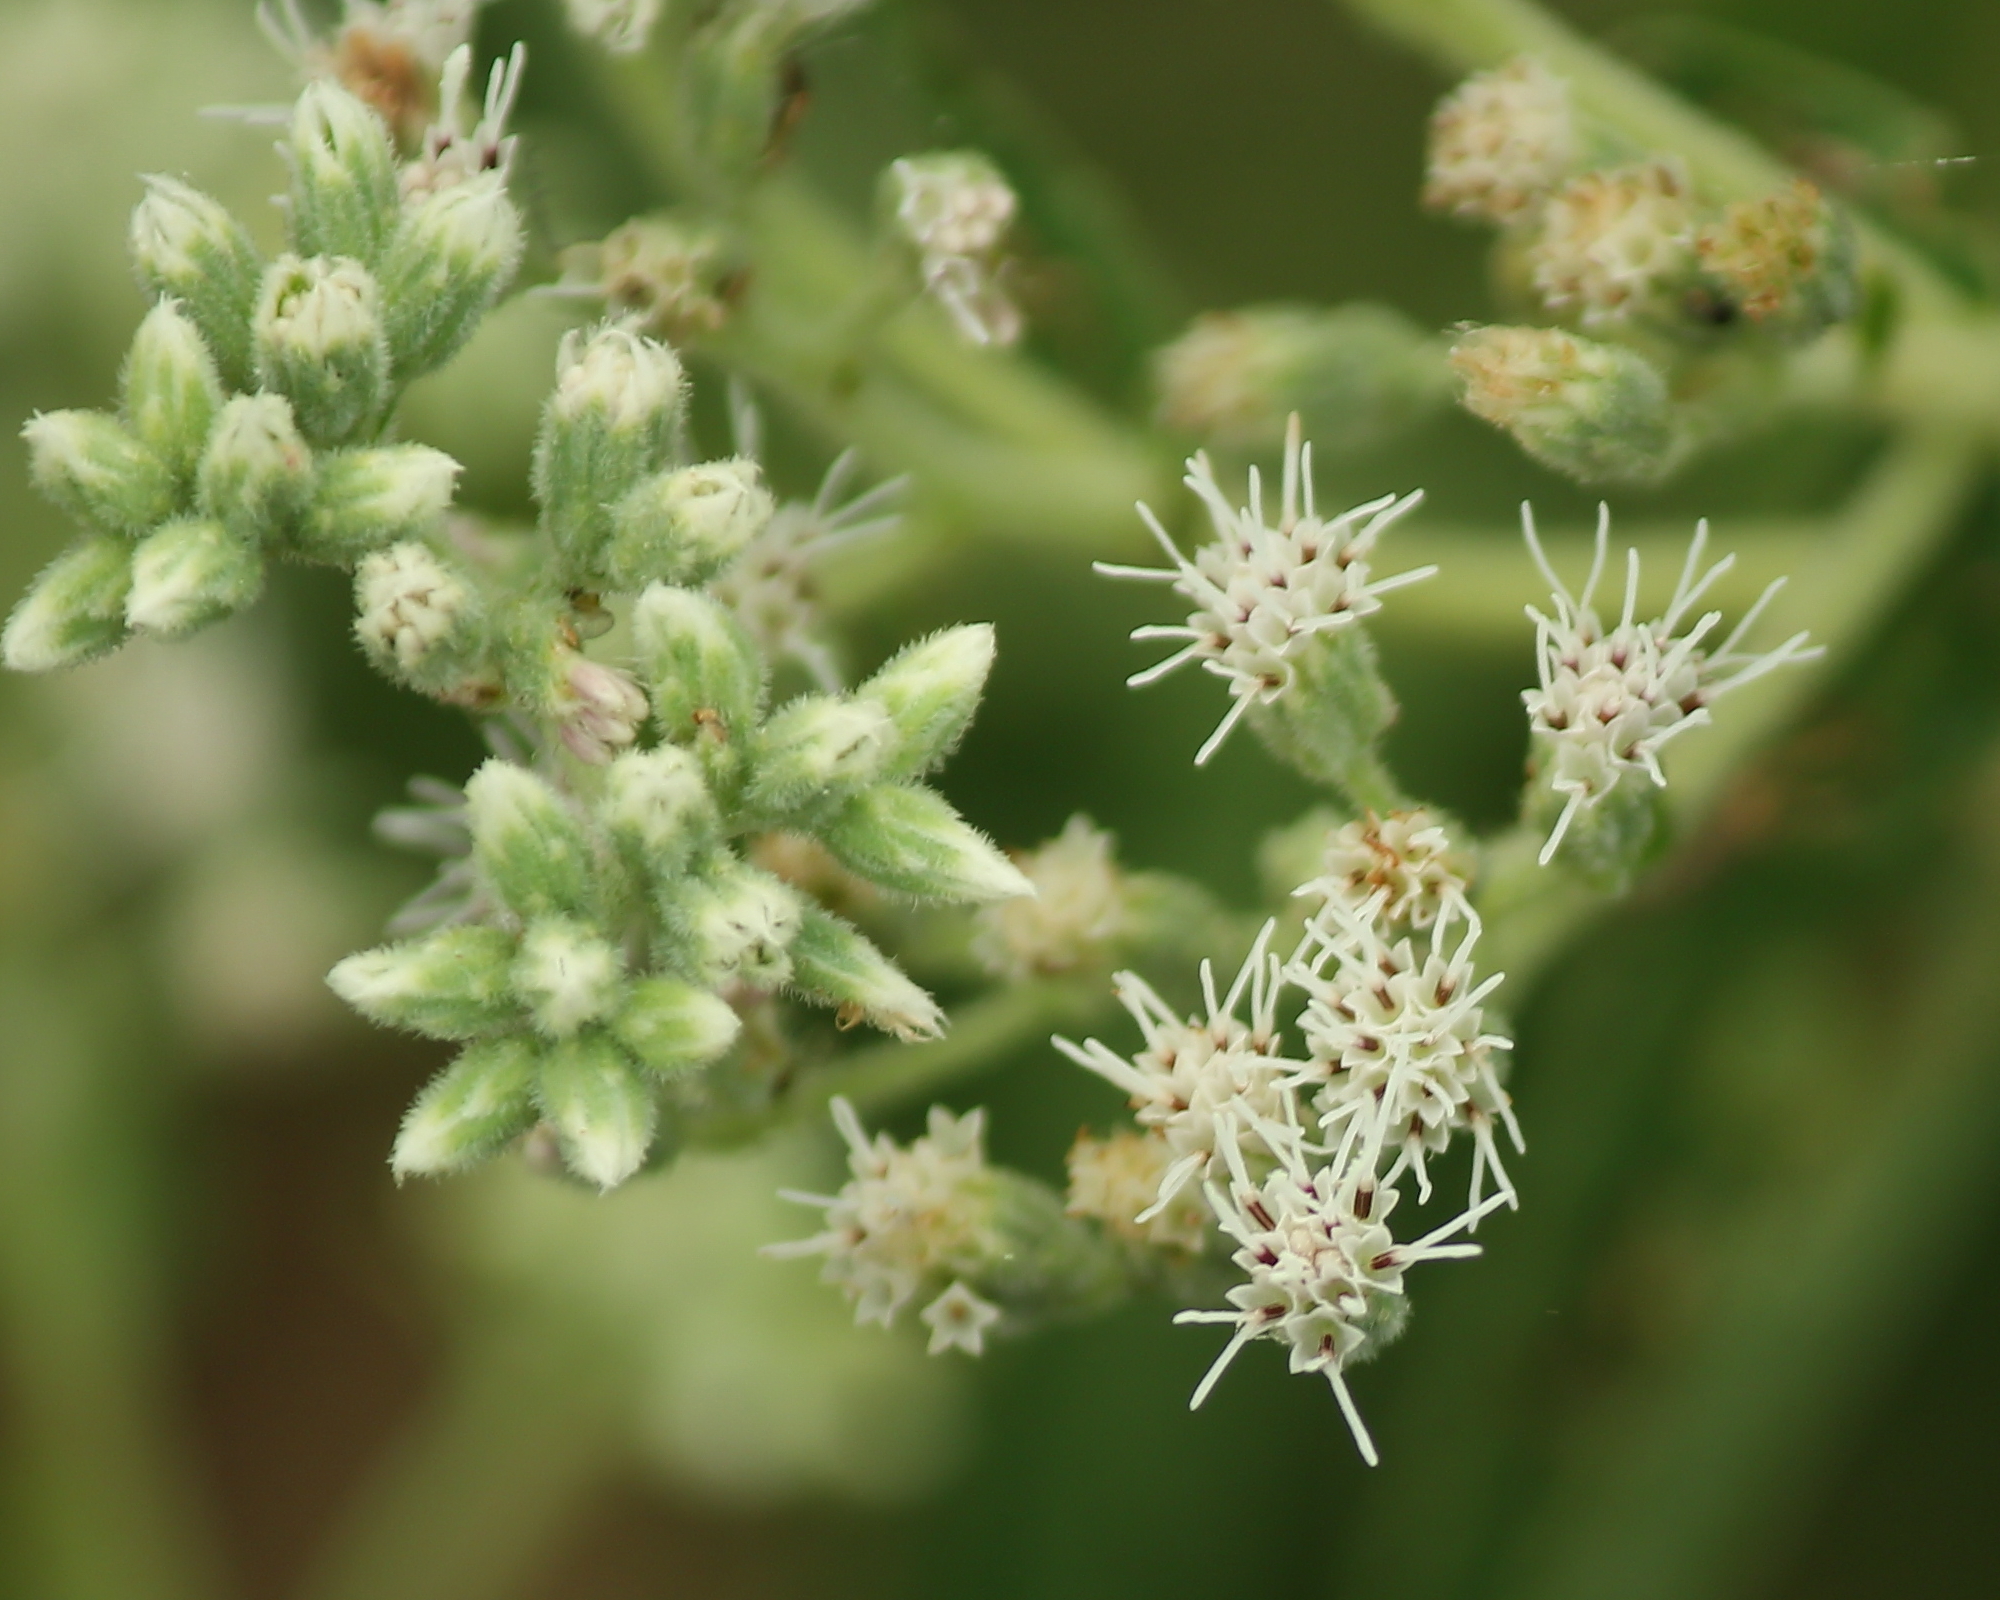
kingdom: Plantae
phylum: Tracheophyta
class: Magnoliopsida
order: Asterales
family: Asteraceae
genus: Eupatorium
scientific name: Eupatorium perfoliatum
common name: Boneset
